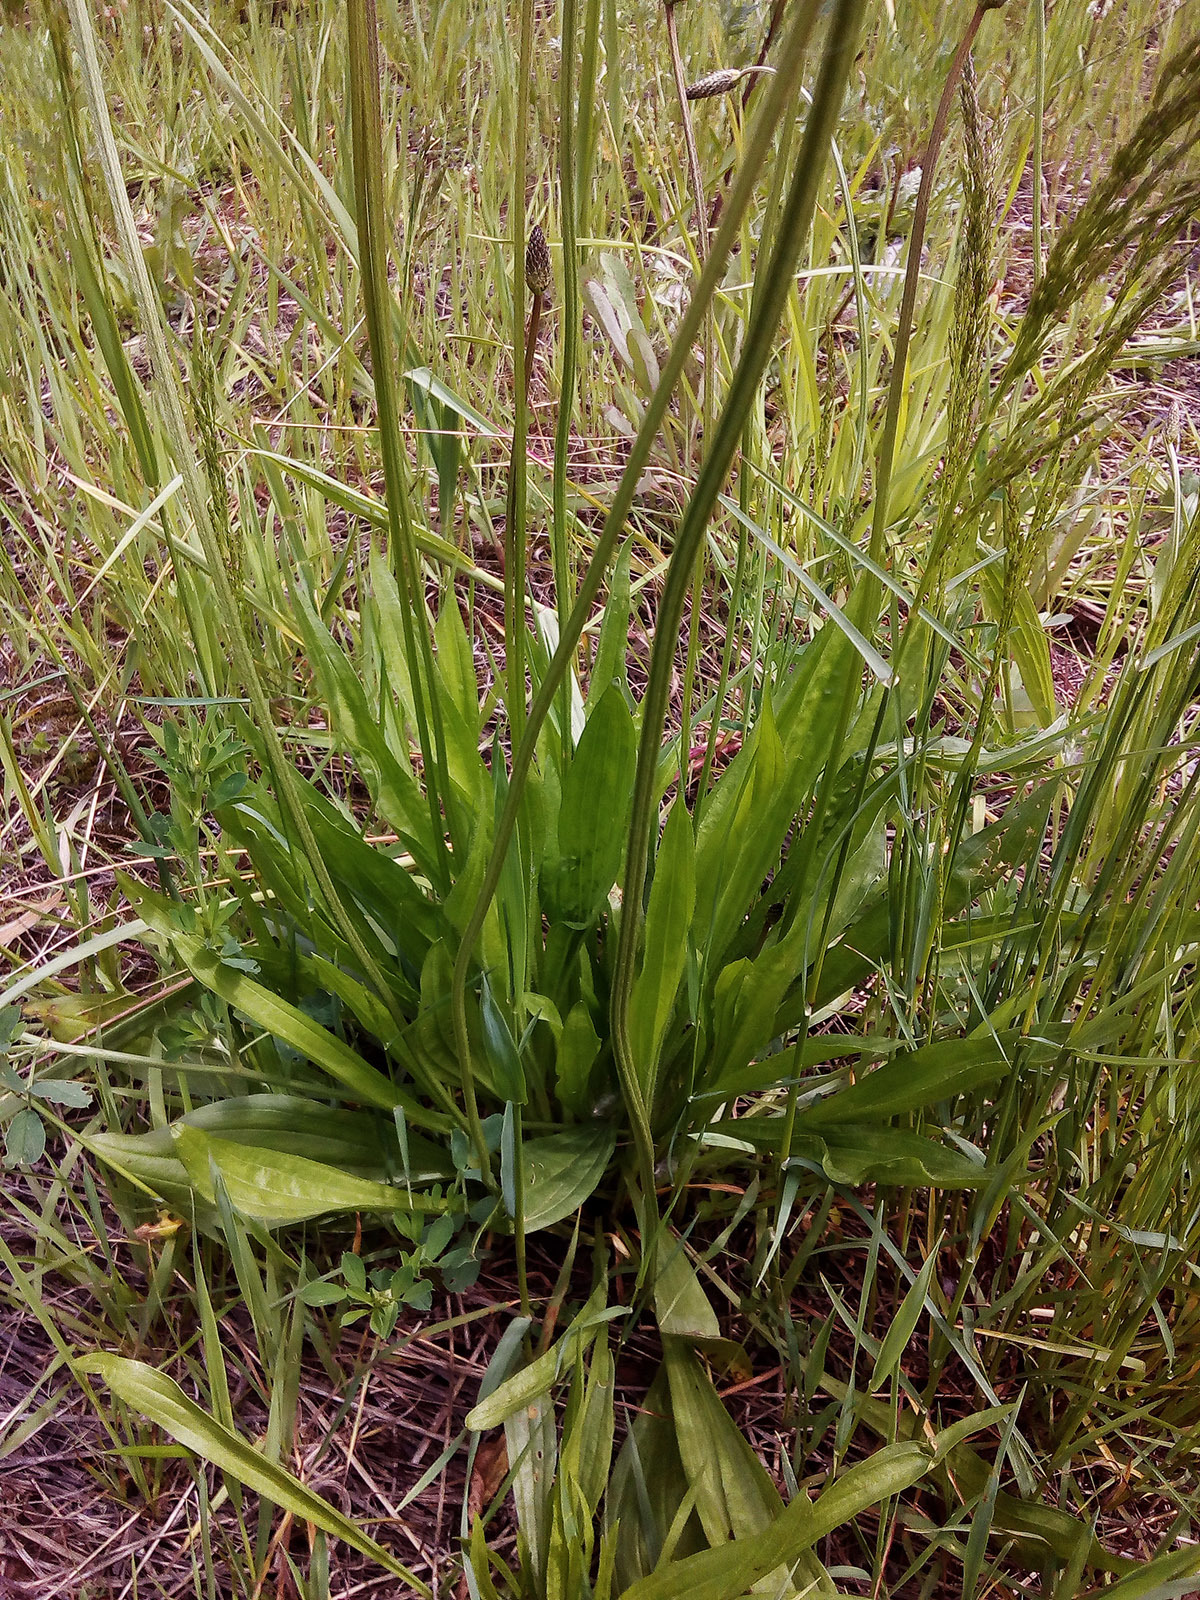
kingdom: Plantae
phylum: Tracheophyta
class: Magnoliopsida
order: Lamiales
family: Plantaginaceae
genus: Plantago
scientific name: Plantago lanceolata
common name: Ribwort plantain
